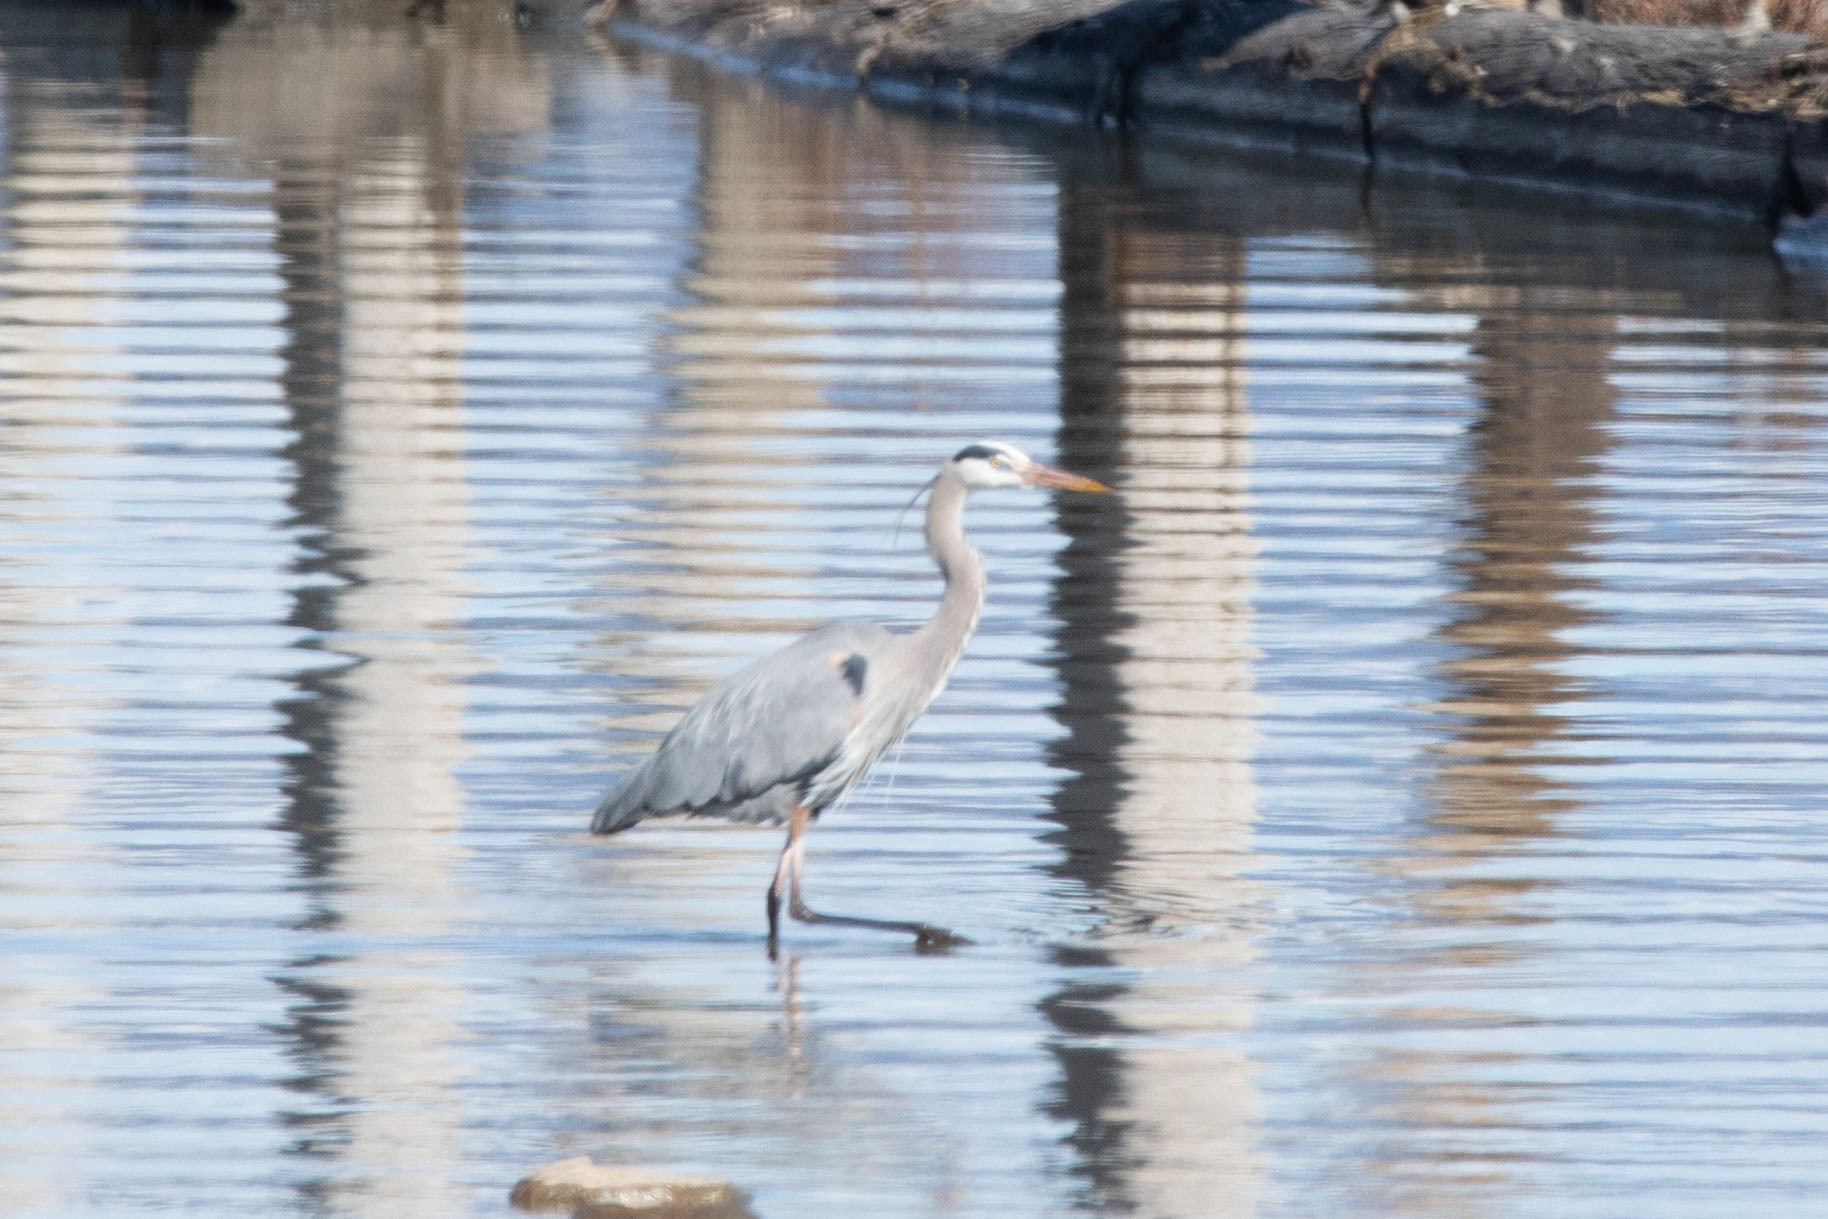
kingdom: Animalia
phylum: Chordata
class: Aves
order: Pelecaniformes
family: Ardeidae
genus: Ardea
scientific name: Ardea herodias
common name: Great blue heron
